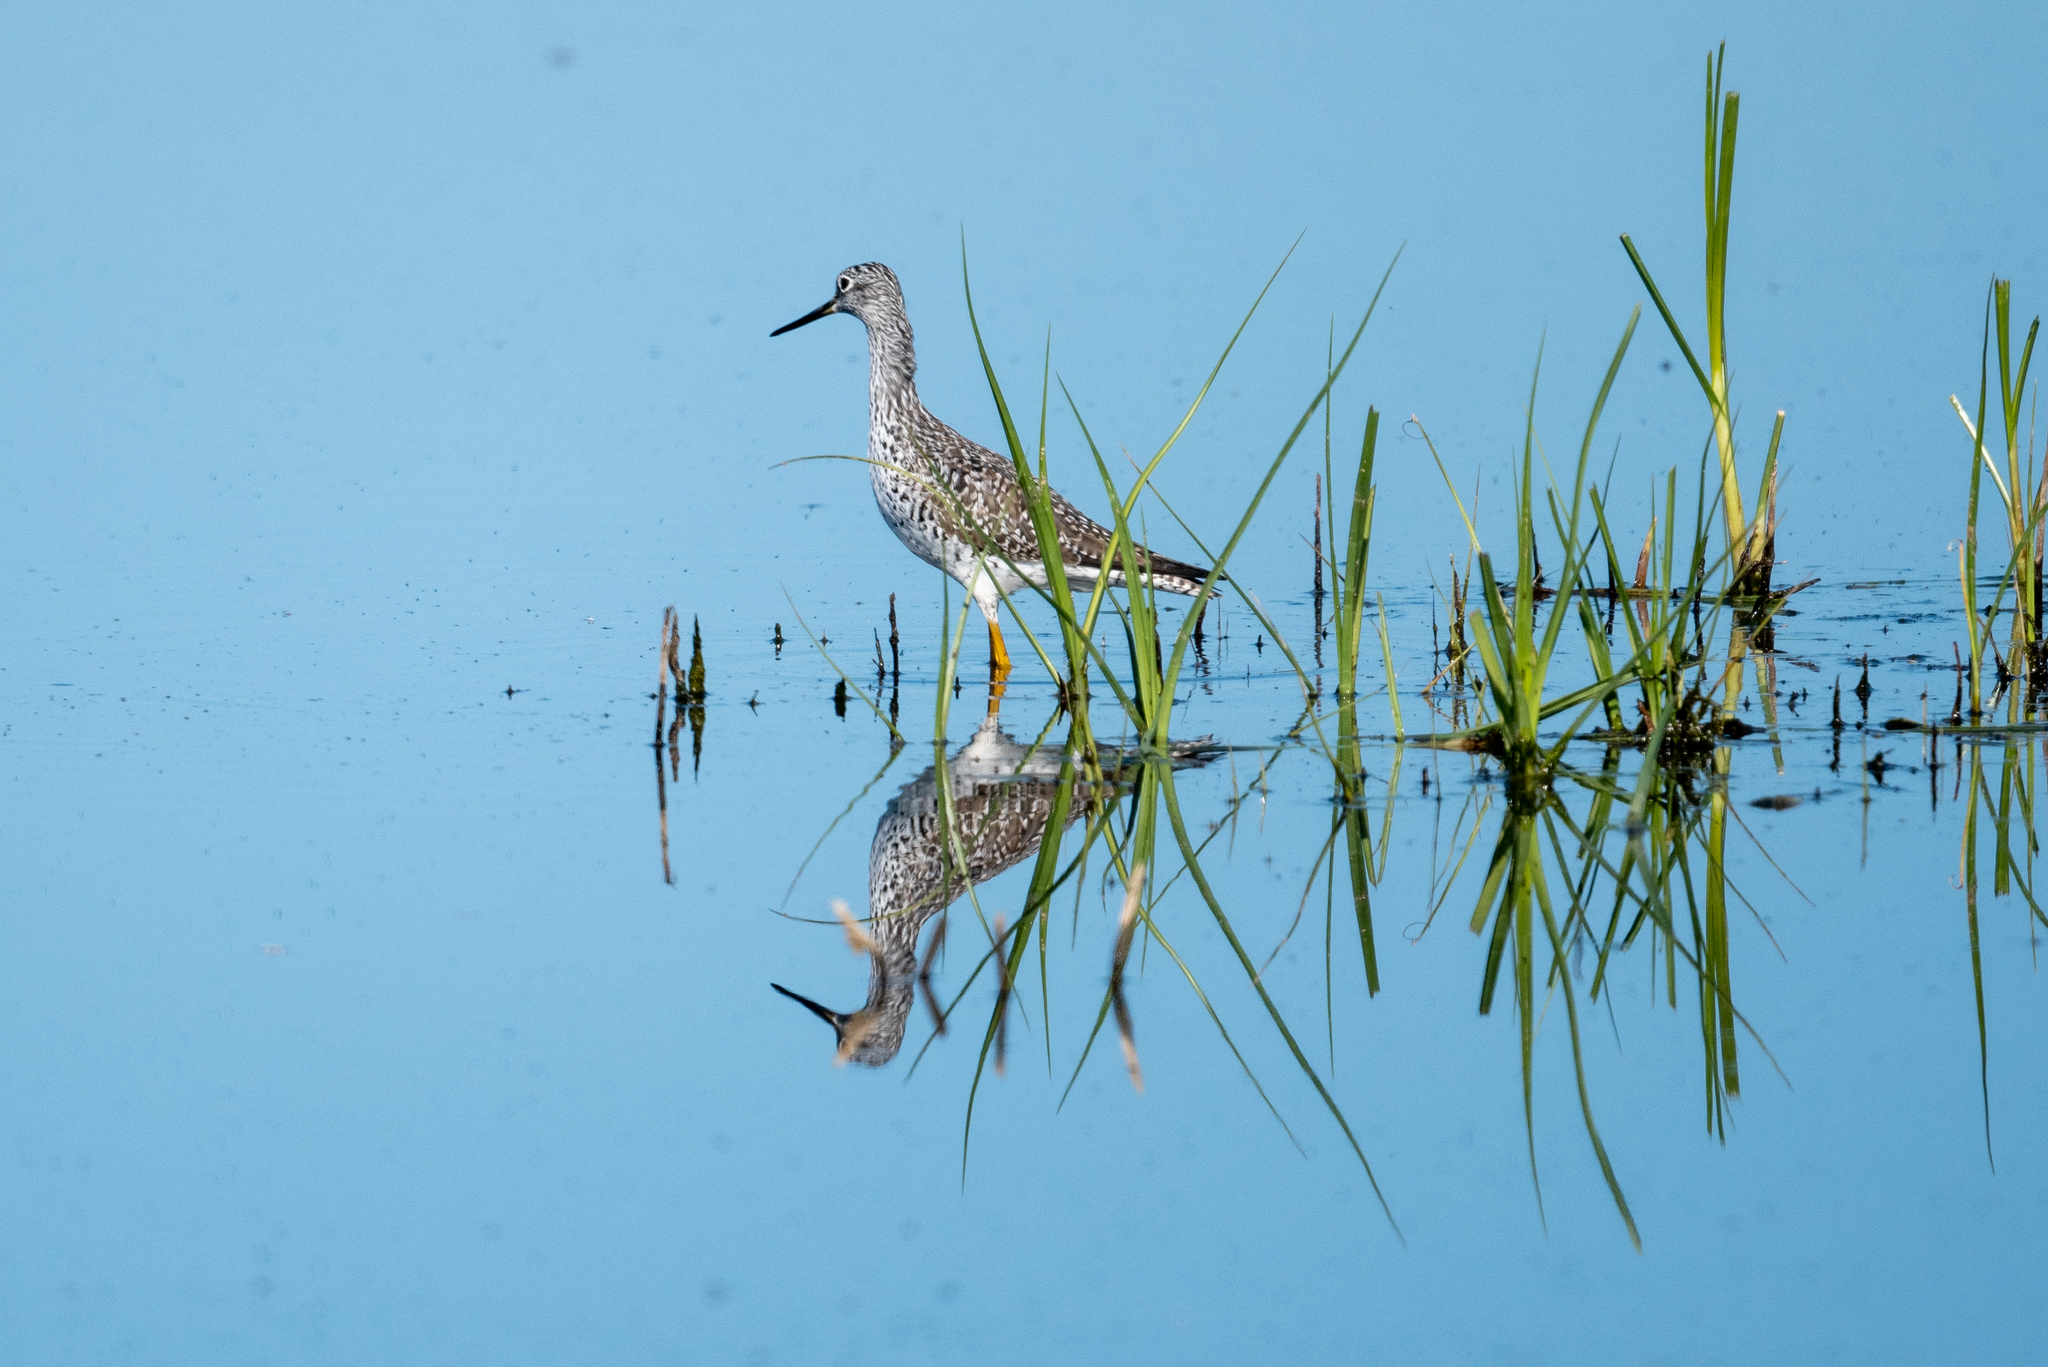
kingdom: Animalia
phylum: Chordata
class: Aves
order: Charadriiformes
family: Scolopacidae
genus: Tringa
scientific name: Tringa melanoleuca
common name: Greater yellowlegs
